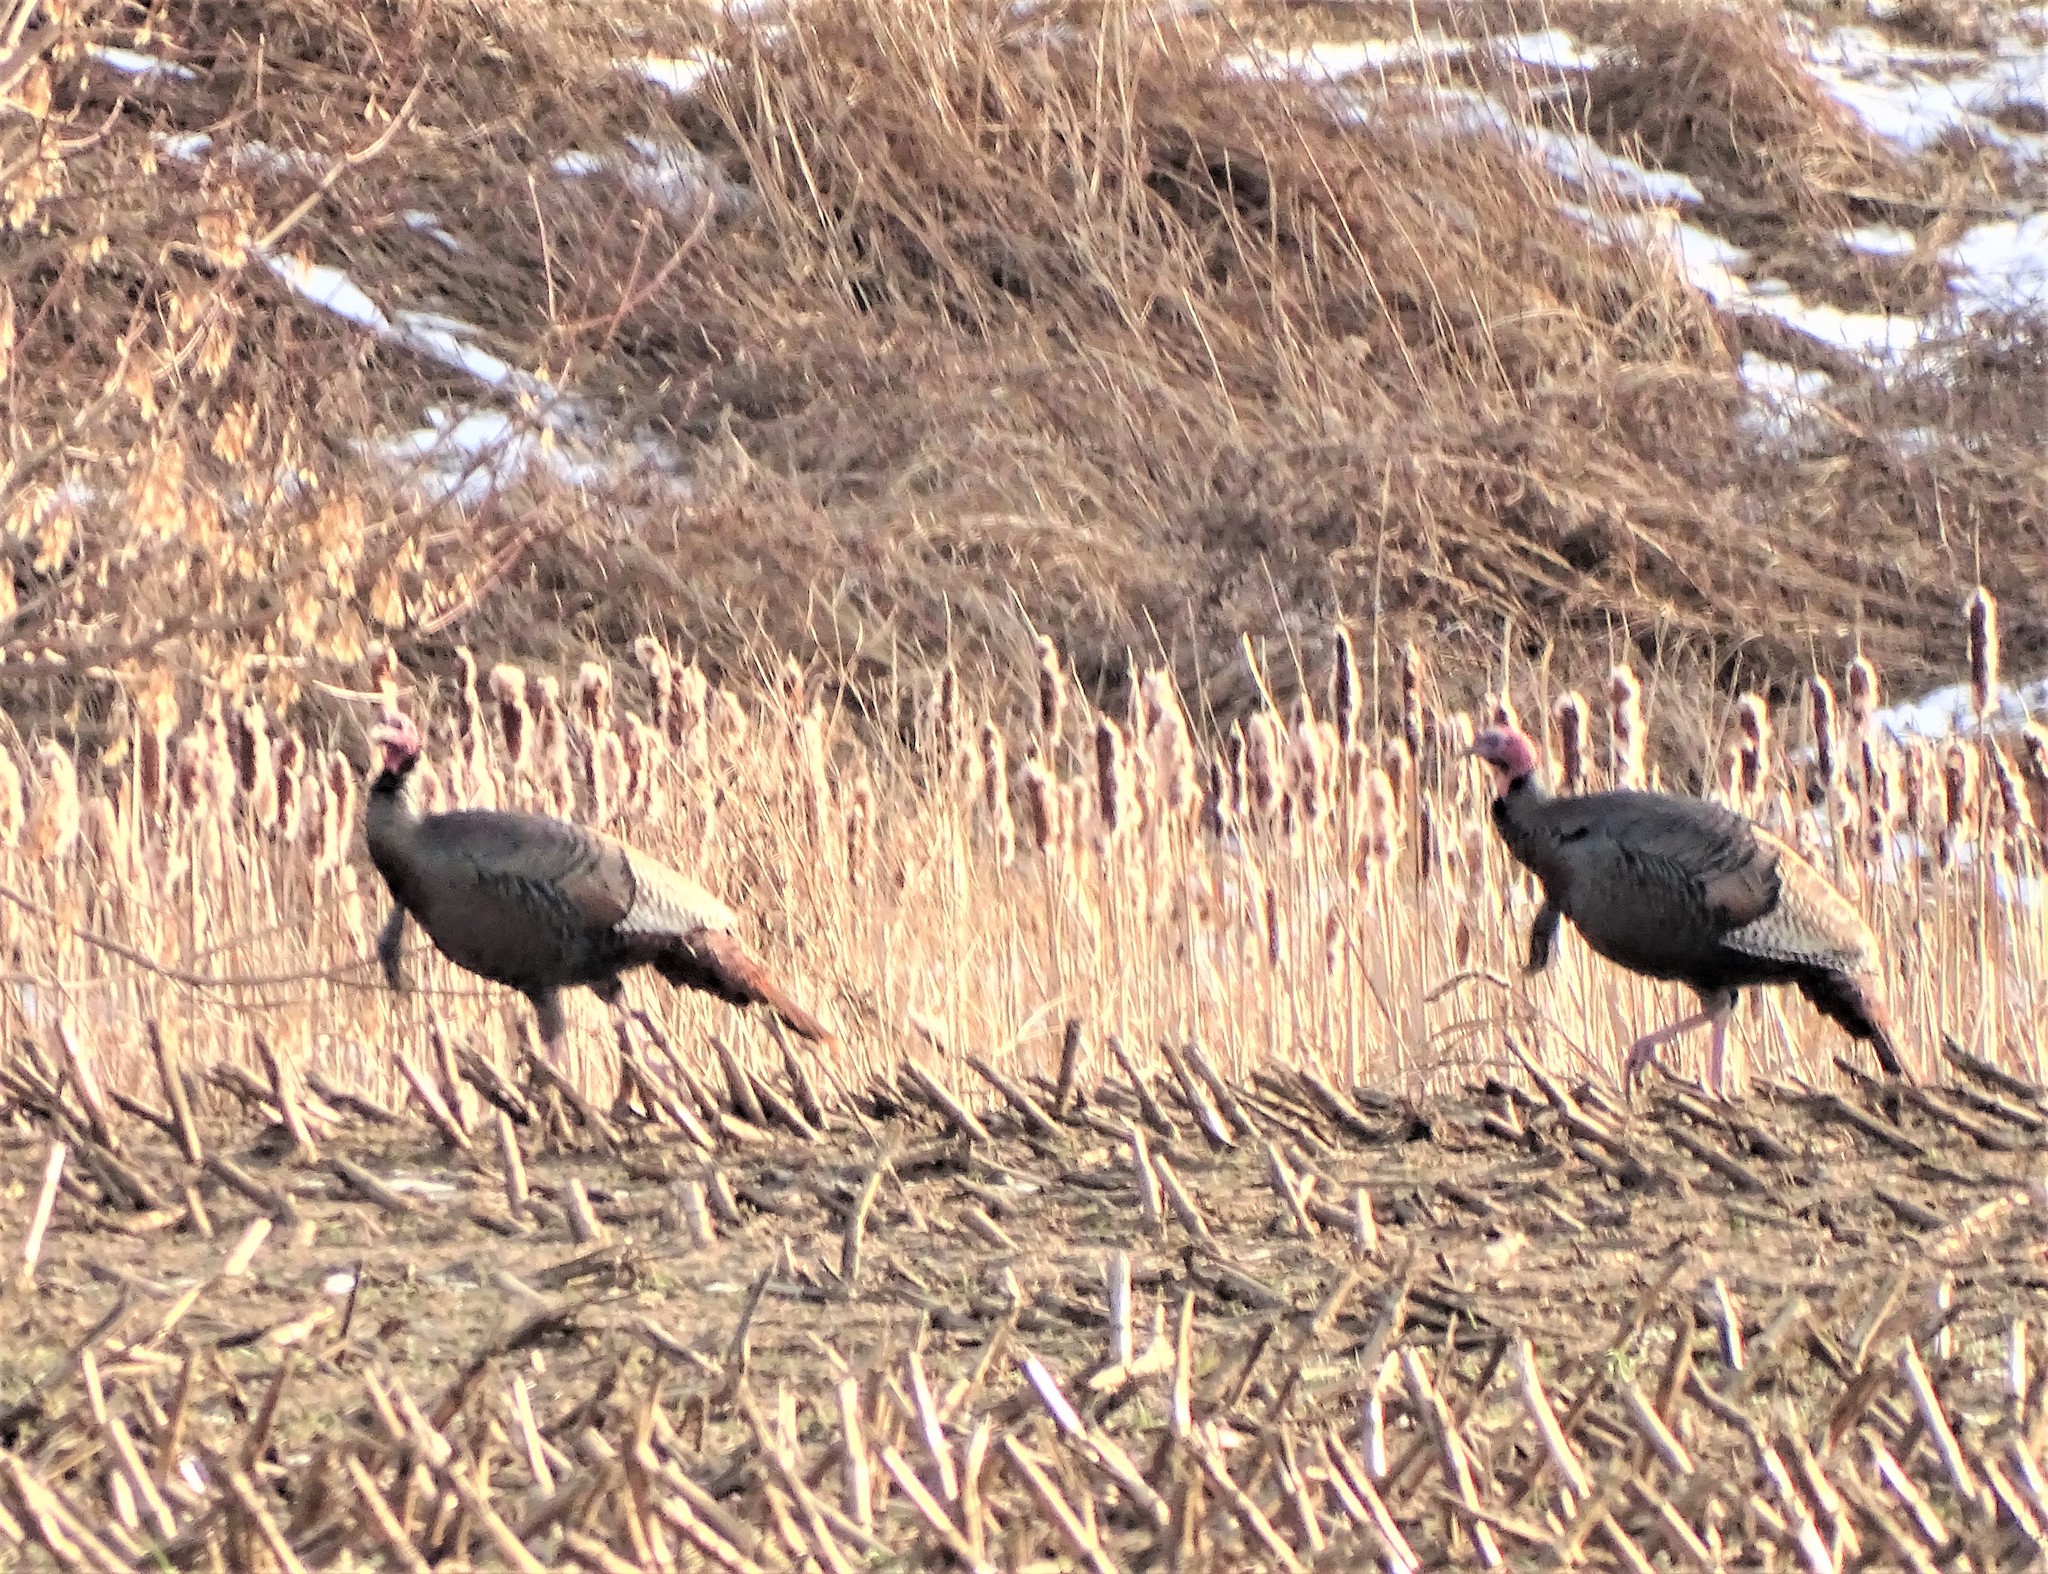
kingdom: Animalia
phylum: Chordata
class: Aves
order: Galliformes
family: Phasianidae
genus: Meleagris
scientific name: Meleagris gallopavo
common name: Wild turkey
